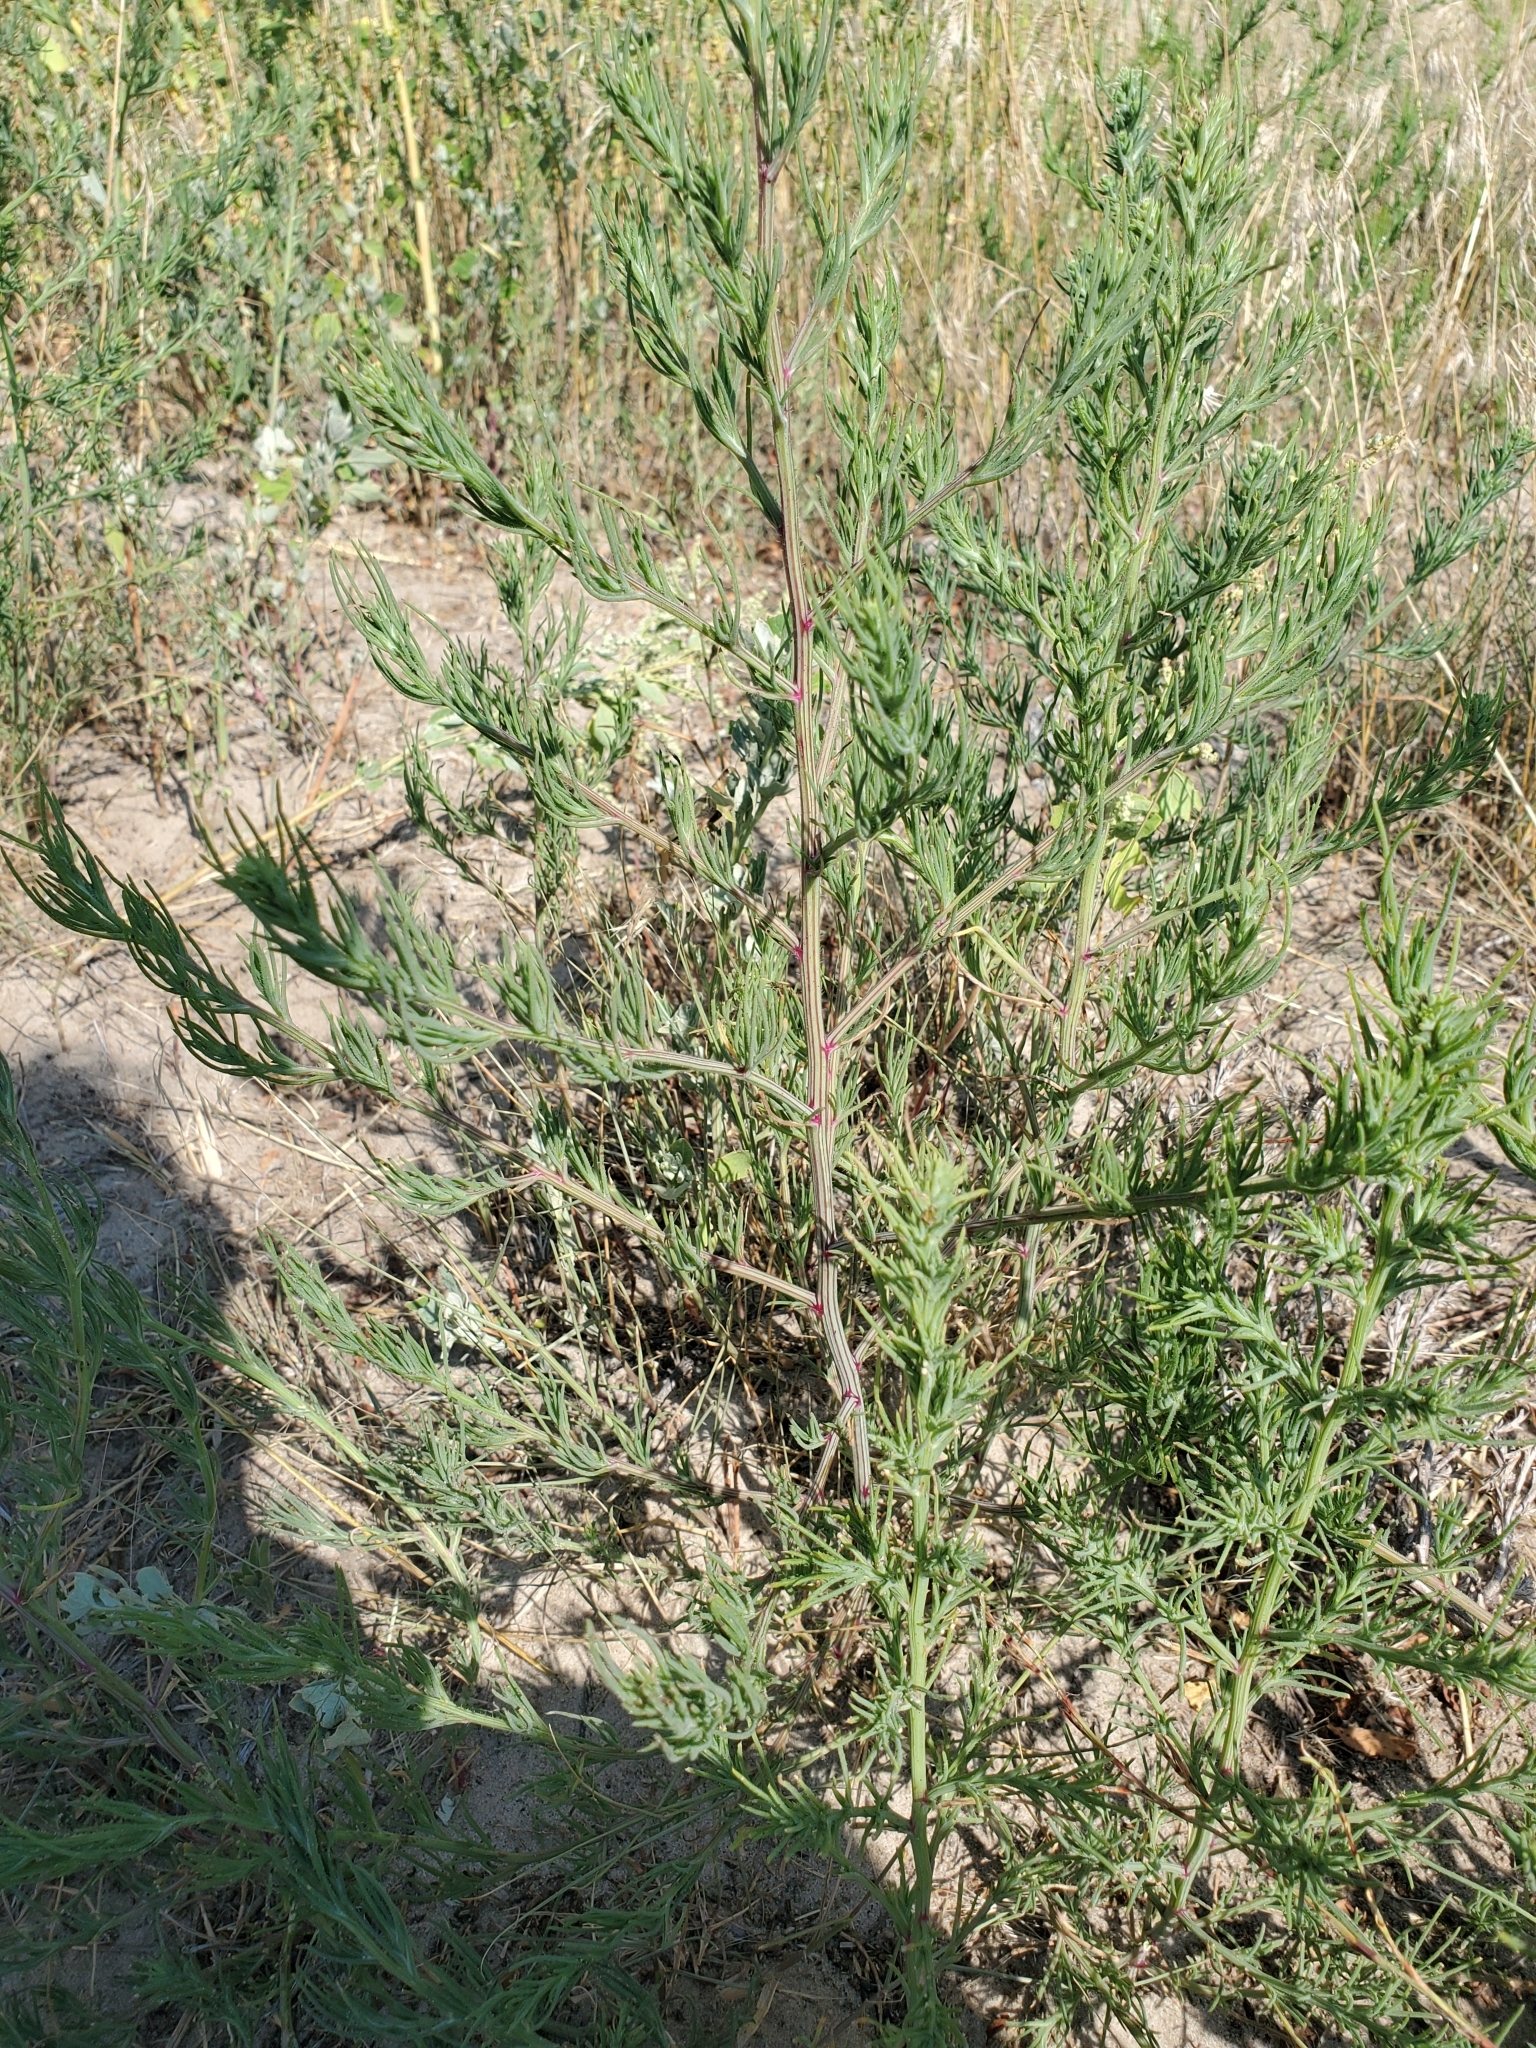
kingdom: Plantae
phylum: Tracheophyta
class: Magnoliopsida
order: Caryophyllales
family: Amaranthaceae
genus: Bassia
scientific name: Bassia scoparia
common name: Belvedere
